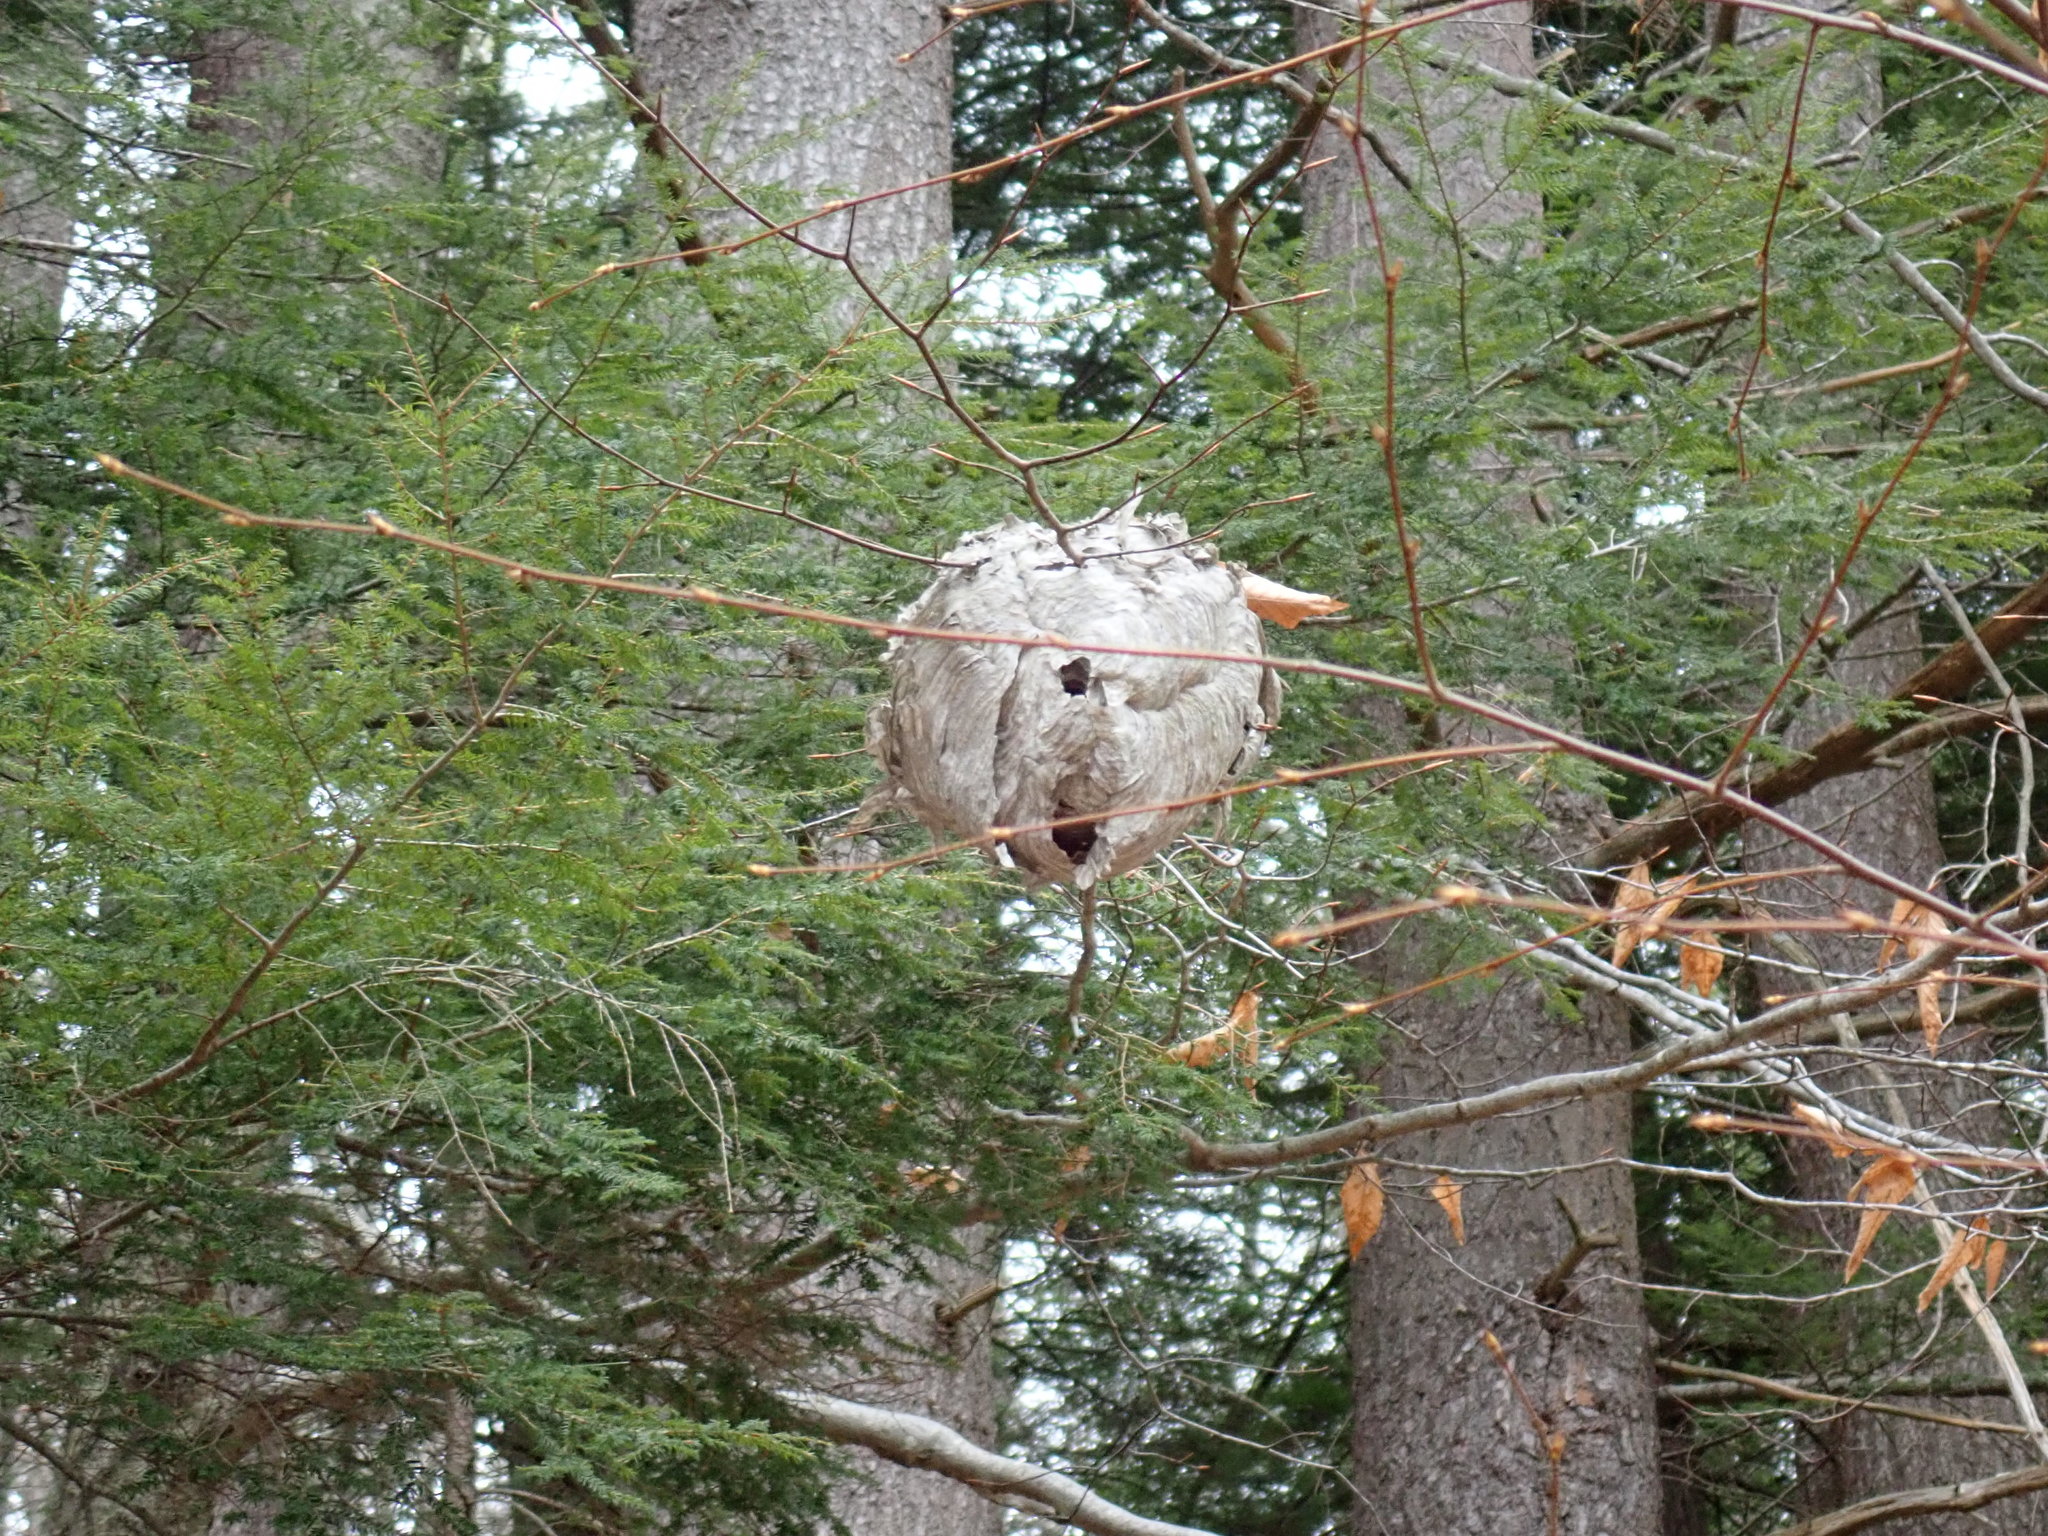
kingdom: Animalia
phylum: Arthropoda
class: Insecta
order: Hymenoptera
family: Vespidae
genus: Dolichovespula
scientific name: Dolichovespula maculata
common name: Bald-faced hornet
